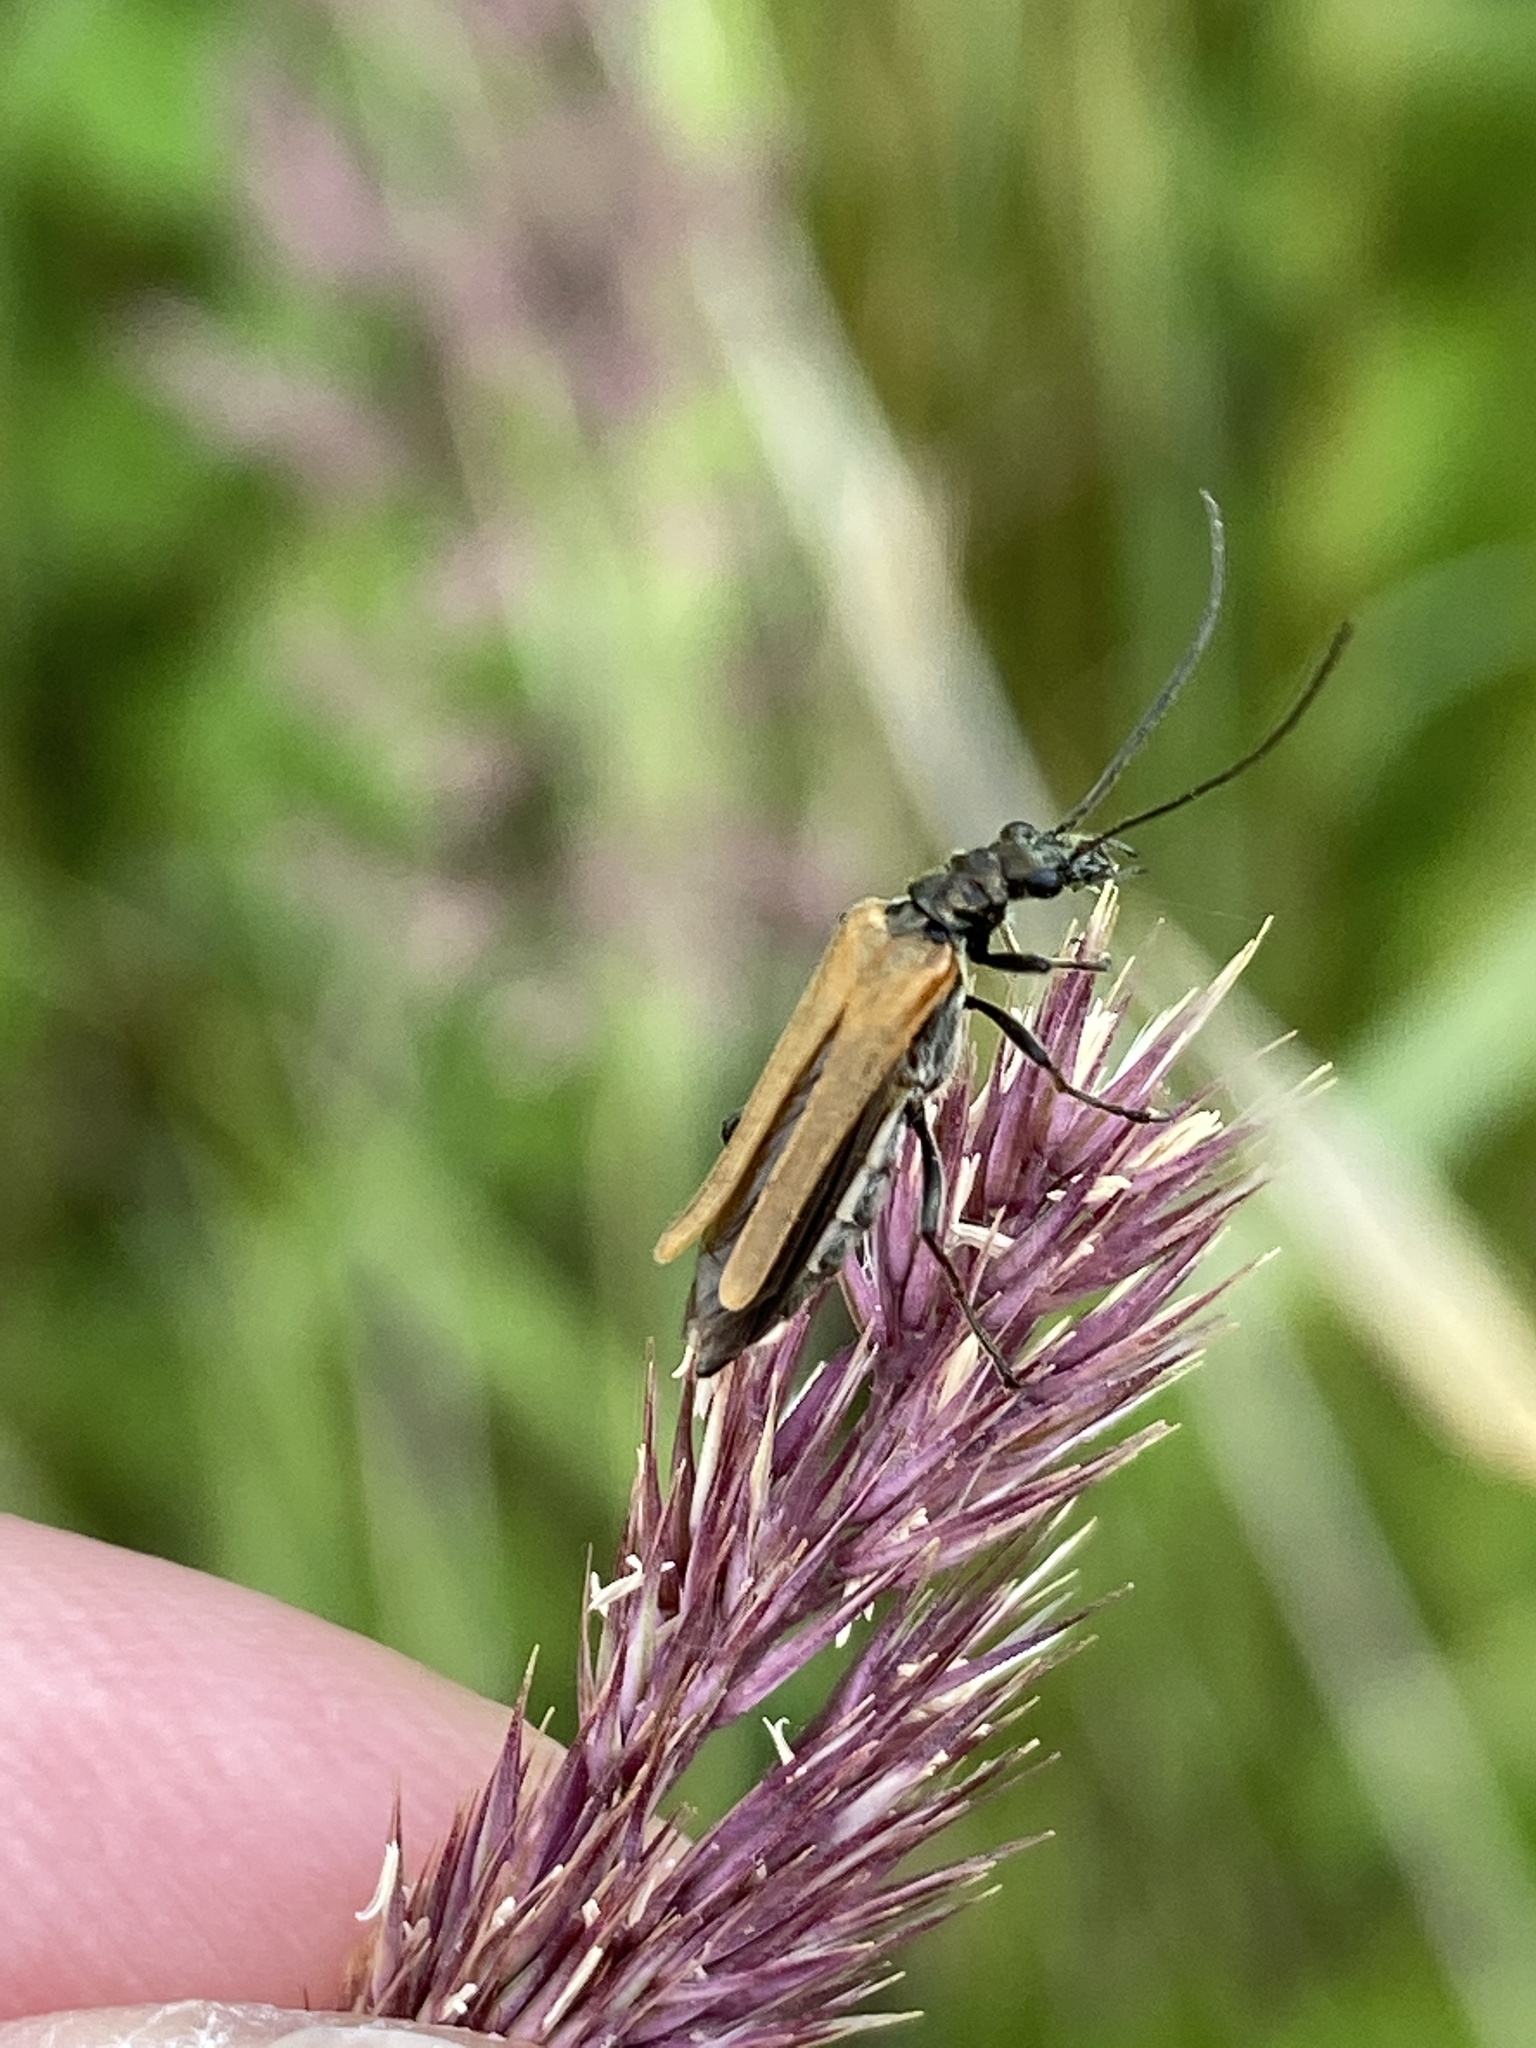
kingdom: Animalia
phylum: Arthropoda
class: Insecta
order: Coleoptera
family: Oedemeridae
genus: Oedemera
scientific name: Oedemera femorata
